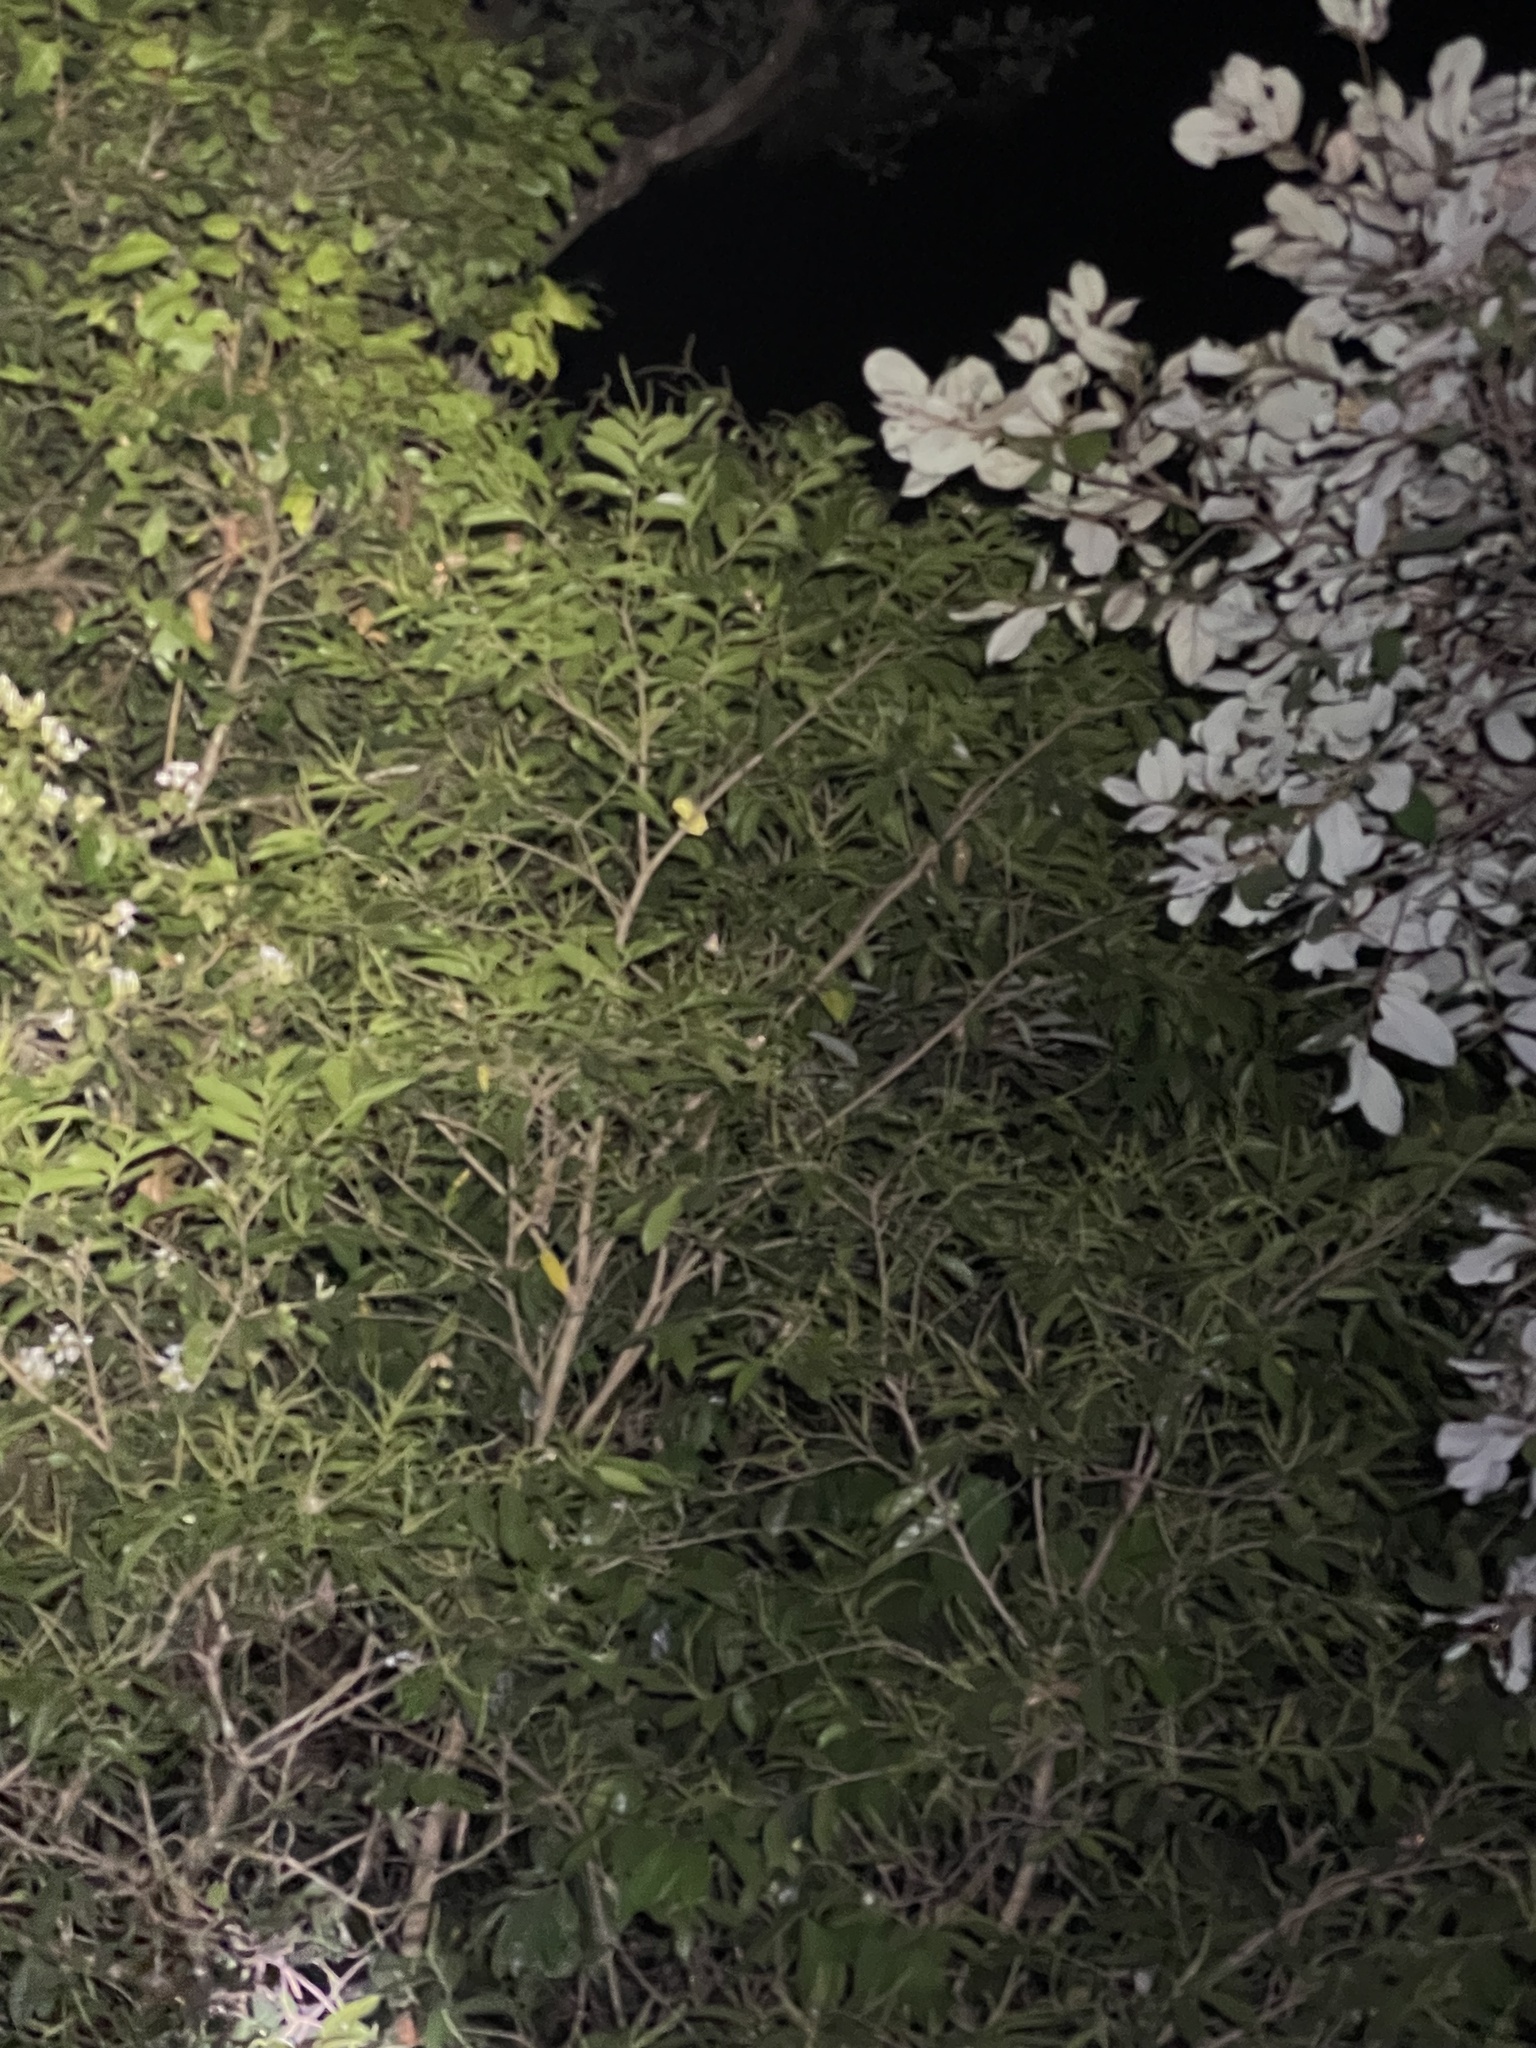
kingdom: Animalia
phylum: Chordata
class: Amphibia
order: Anura
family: Rhacophoridae
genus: Rhacophorus
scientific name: Rhacophorus malabaricus
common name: Malabar gliding frog
